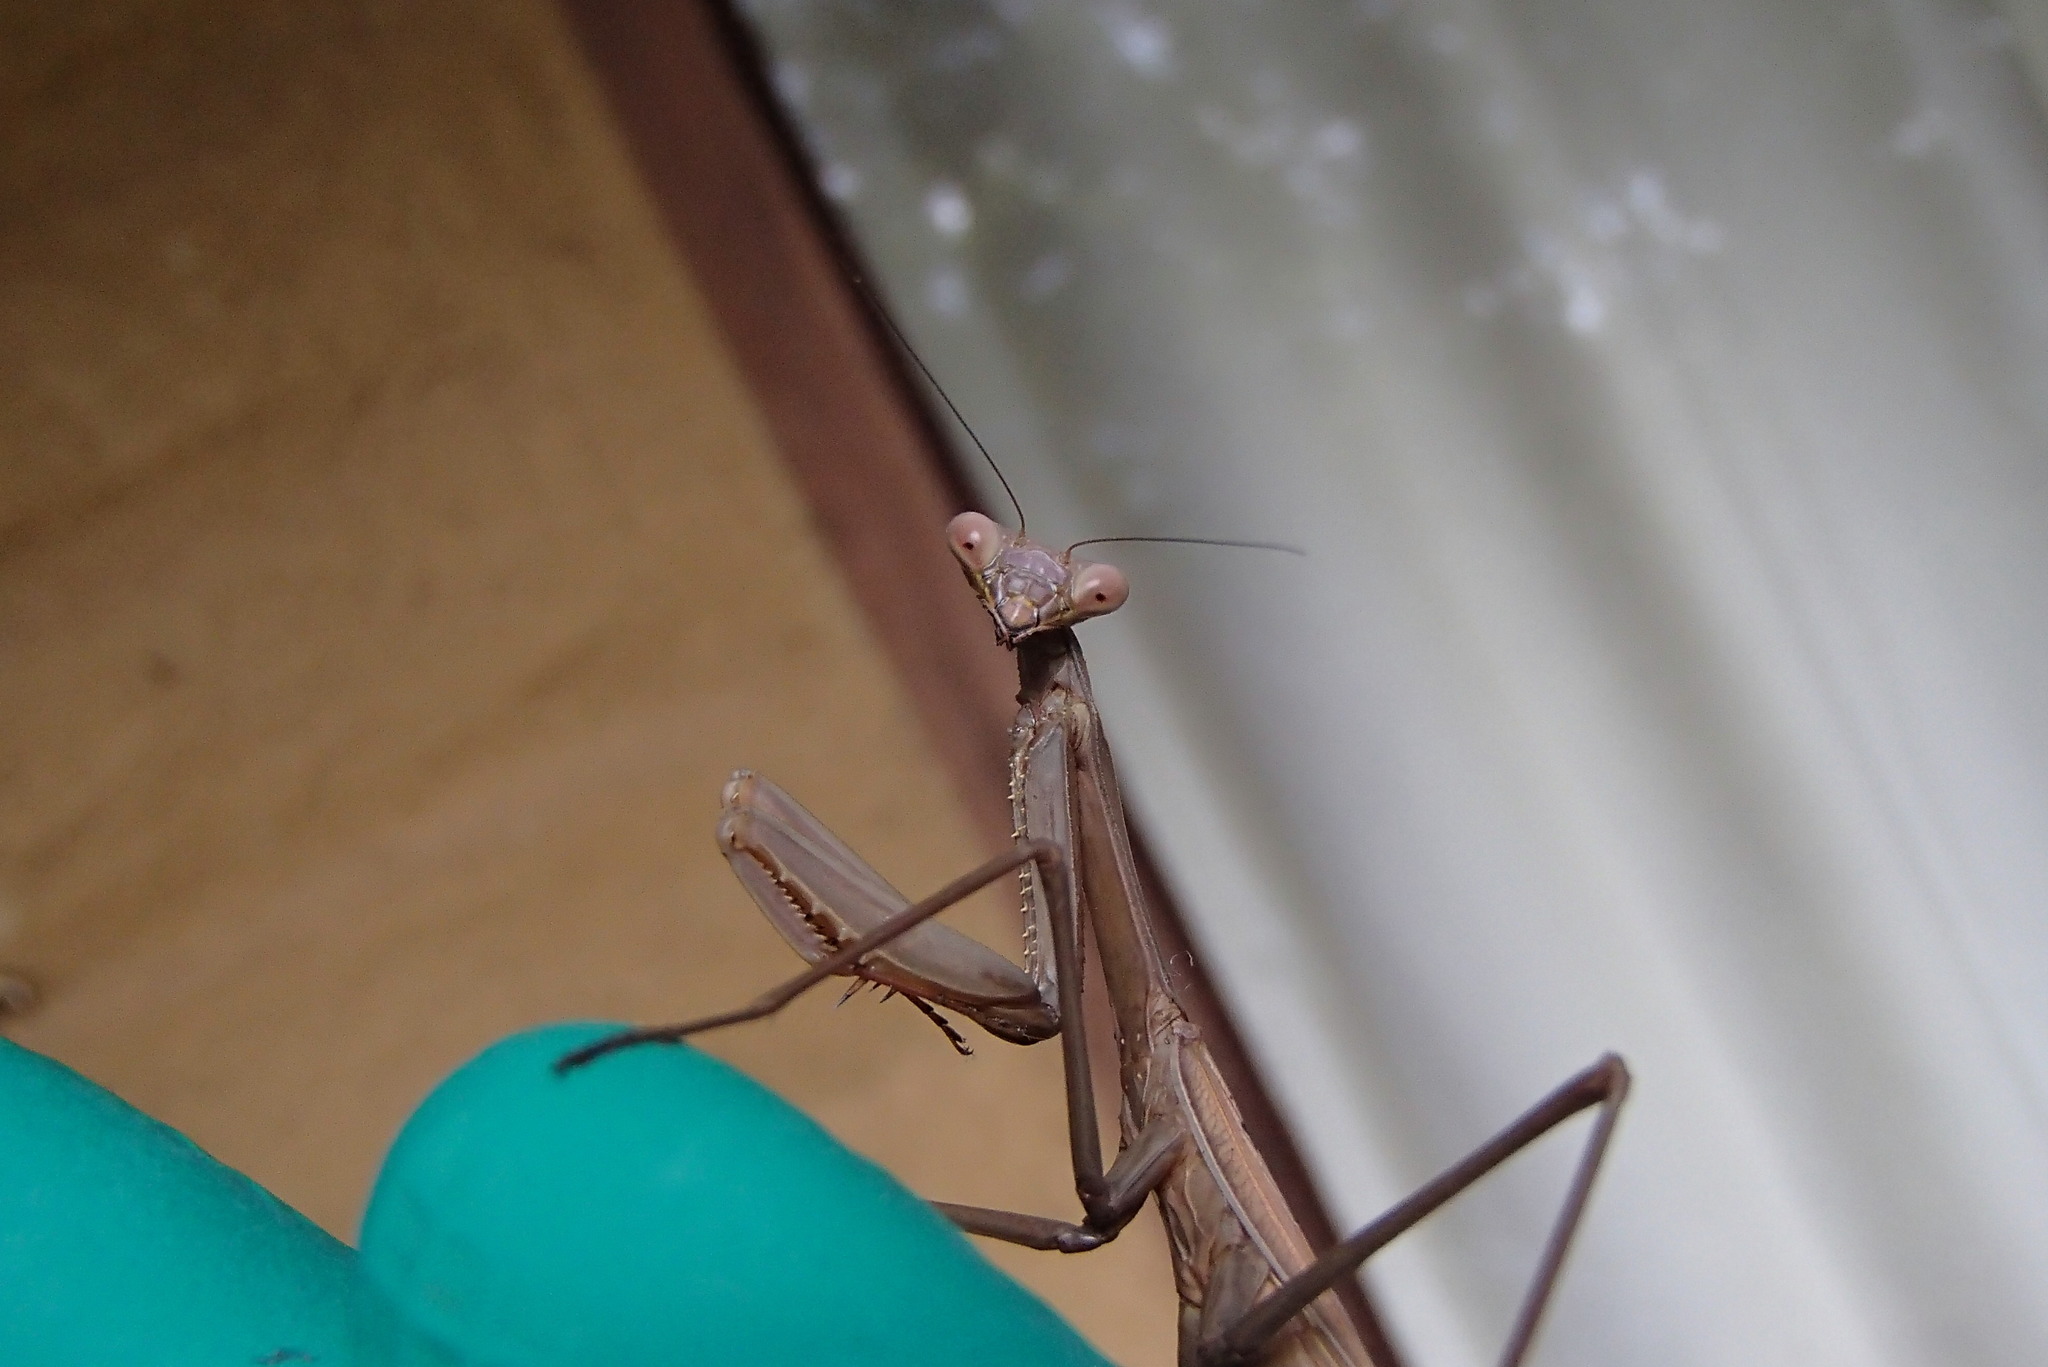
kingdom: Animalia
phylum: Arthropoda
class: Insecta
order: Mantodea
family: Mantidae
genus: Pseudomantis
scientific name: Pseudomantis albofimbriata
